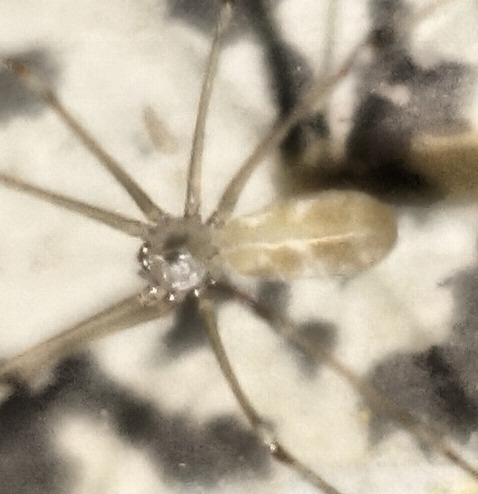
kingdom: Animalia
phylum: Arthropoda
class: Arachnida
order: Araneae
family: Pholcidae
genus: Pholcus
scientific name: Pholcus phalangioides
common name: Longbodied cellar spider
